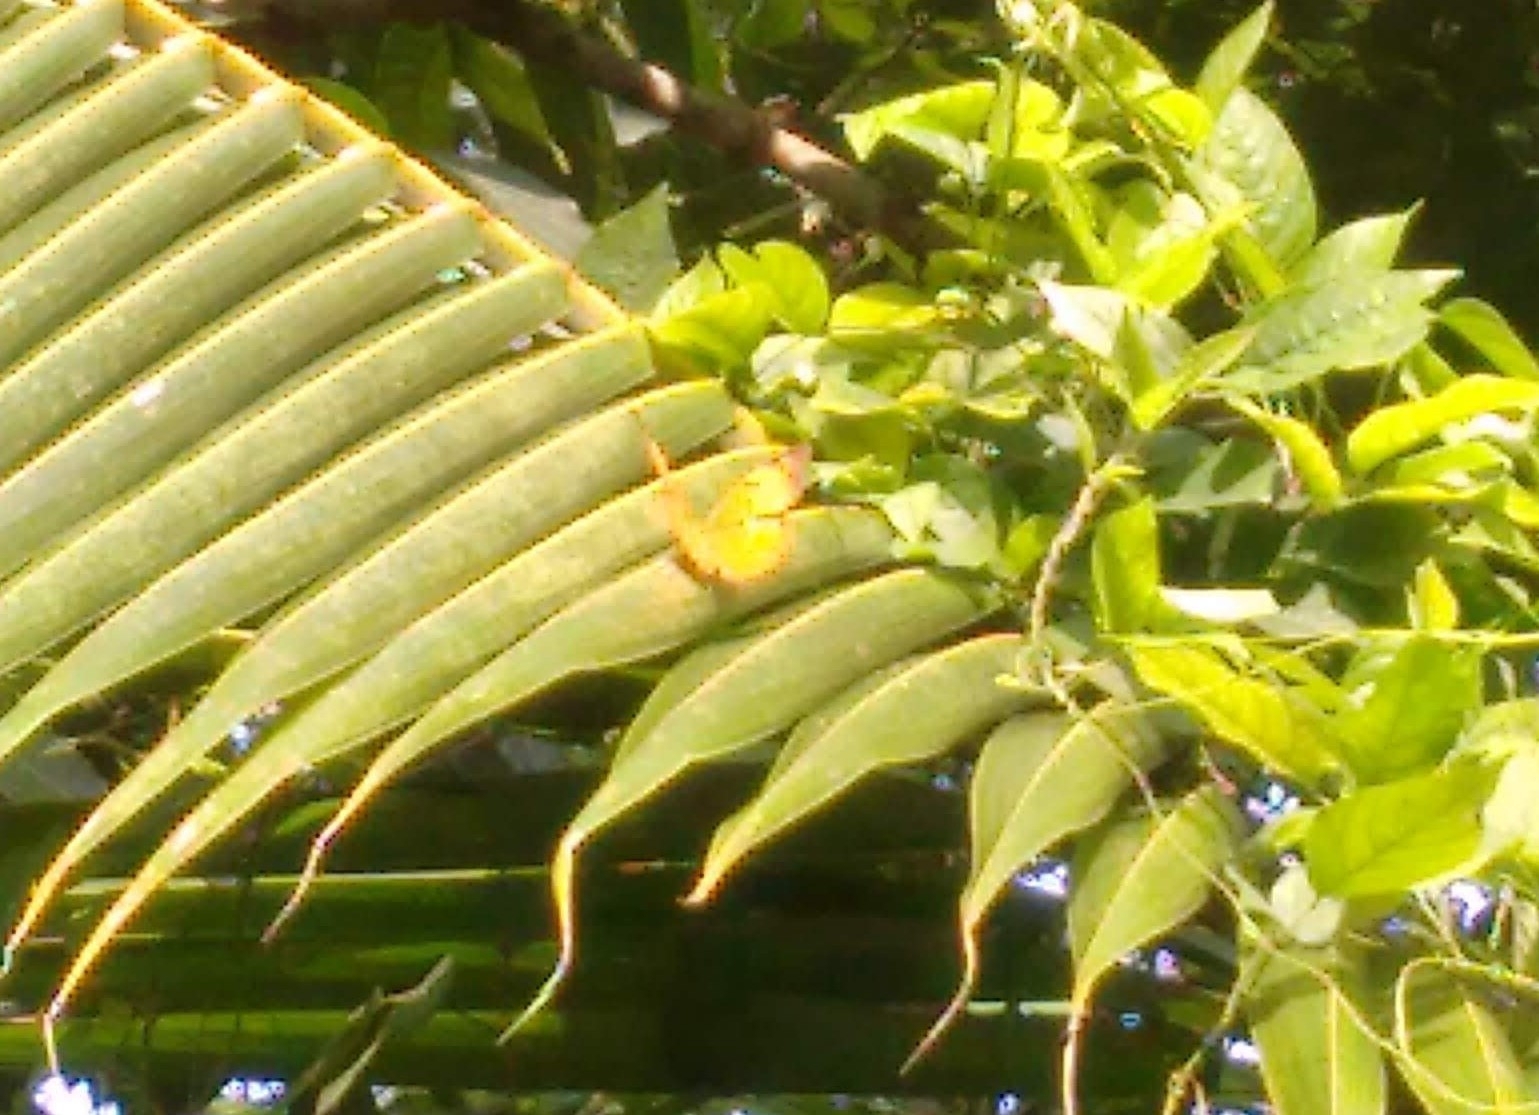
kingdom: Animalia
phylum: Arthropoda
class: Insecta
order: Lepidoptera
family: Nymphalidae
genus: Cirrochroa
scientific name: Cirrochroa thais
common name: Tamil yeoman
